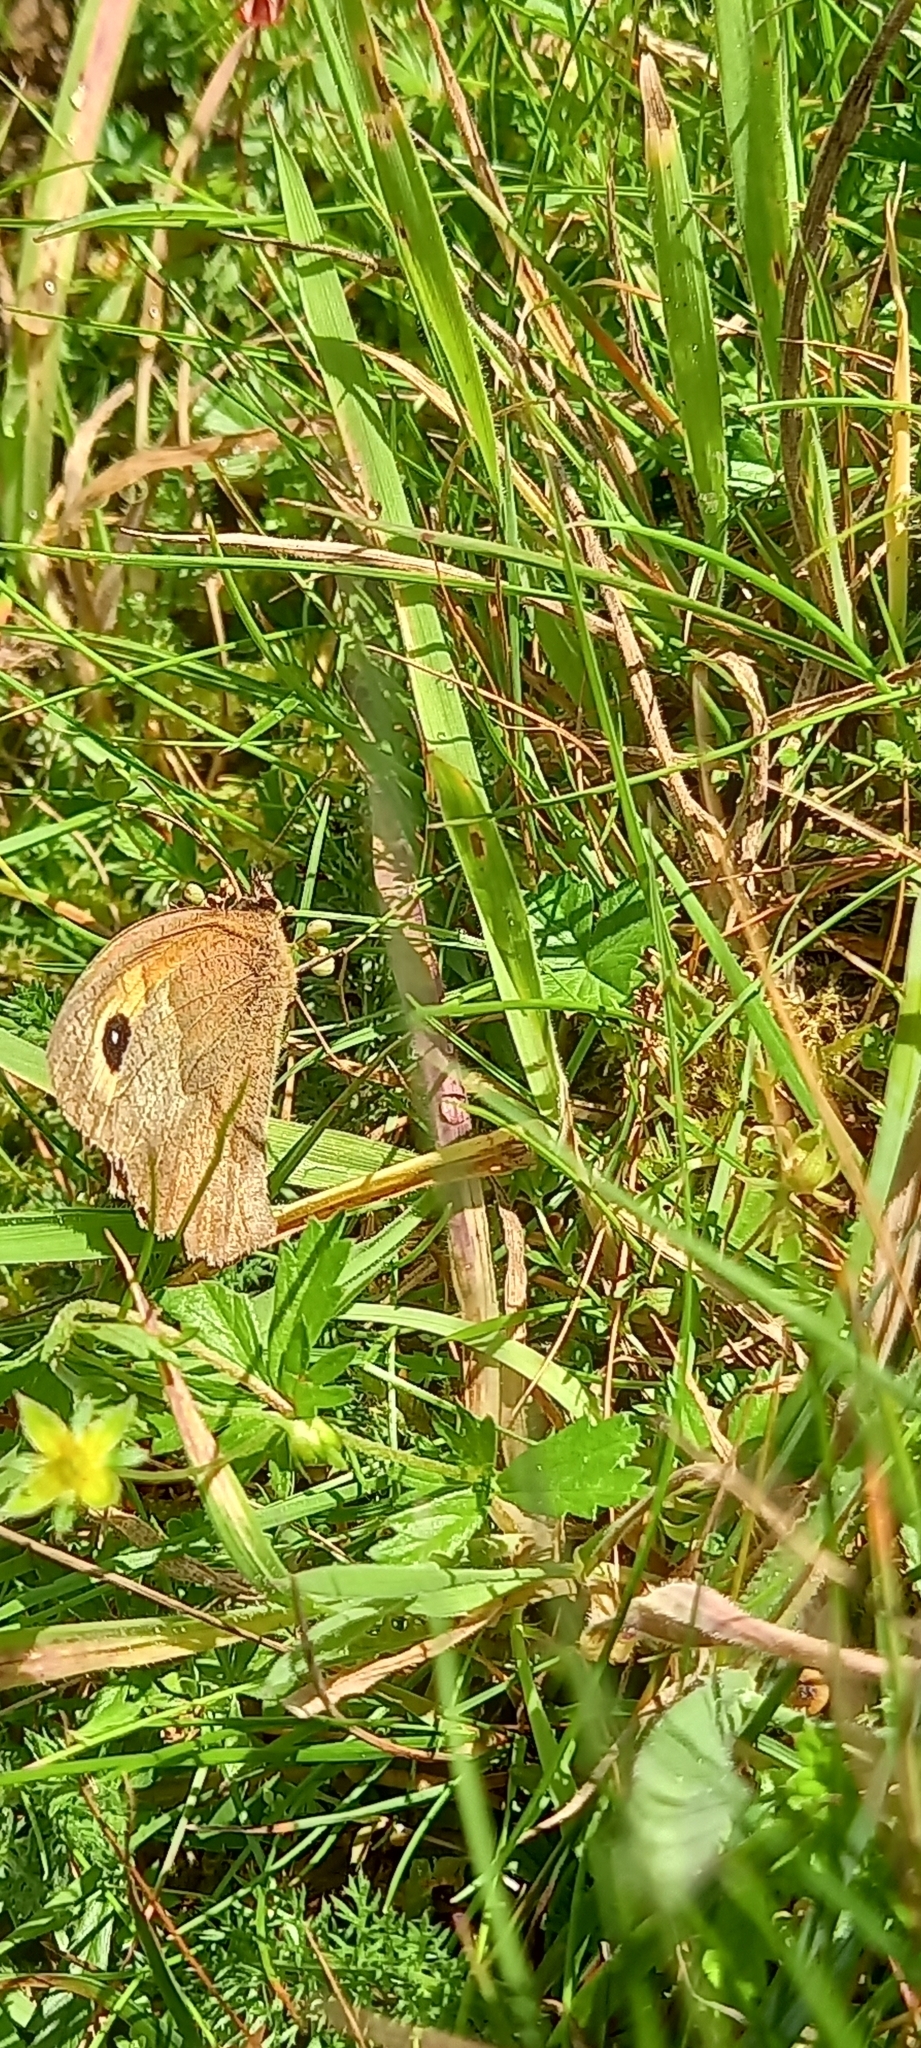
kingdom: Animalia
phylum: Arthropoda
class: Insecta
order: Lepidoptera
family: Nymphalidae
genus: Maniola
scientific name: Maniola jurtina
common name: Meadow brown
